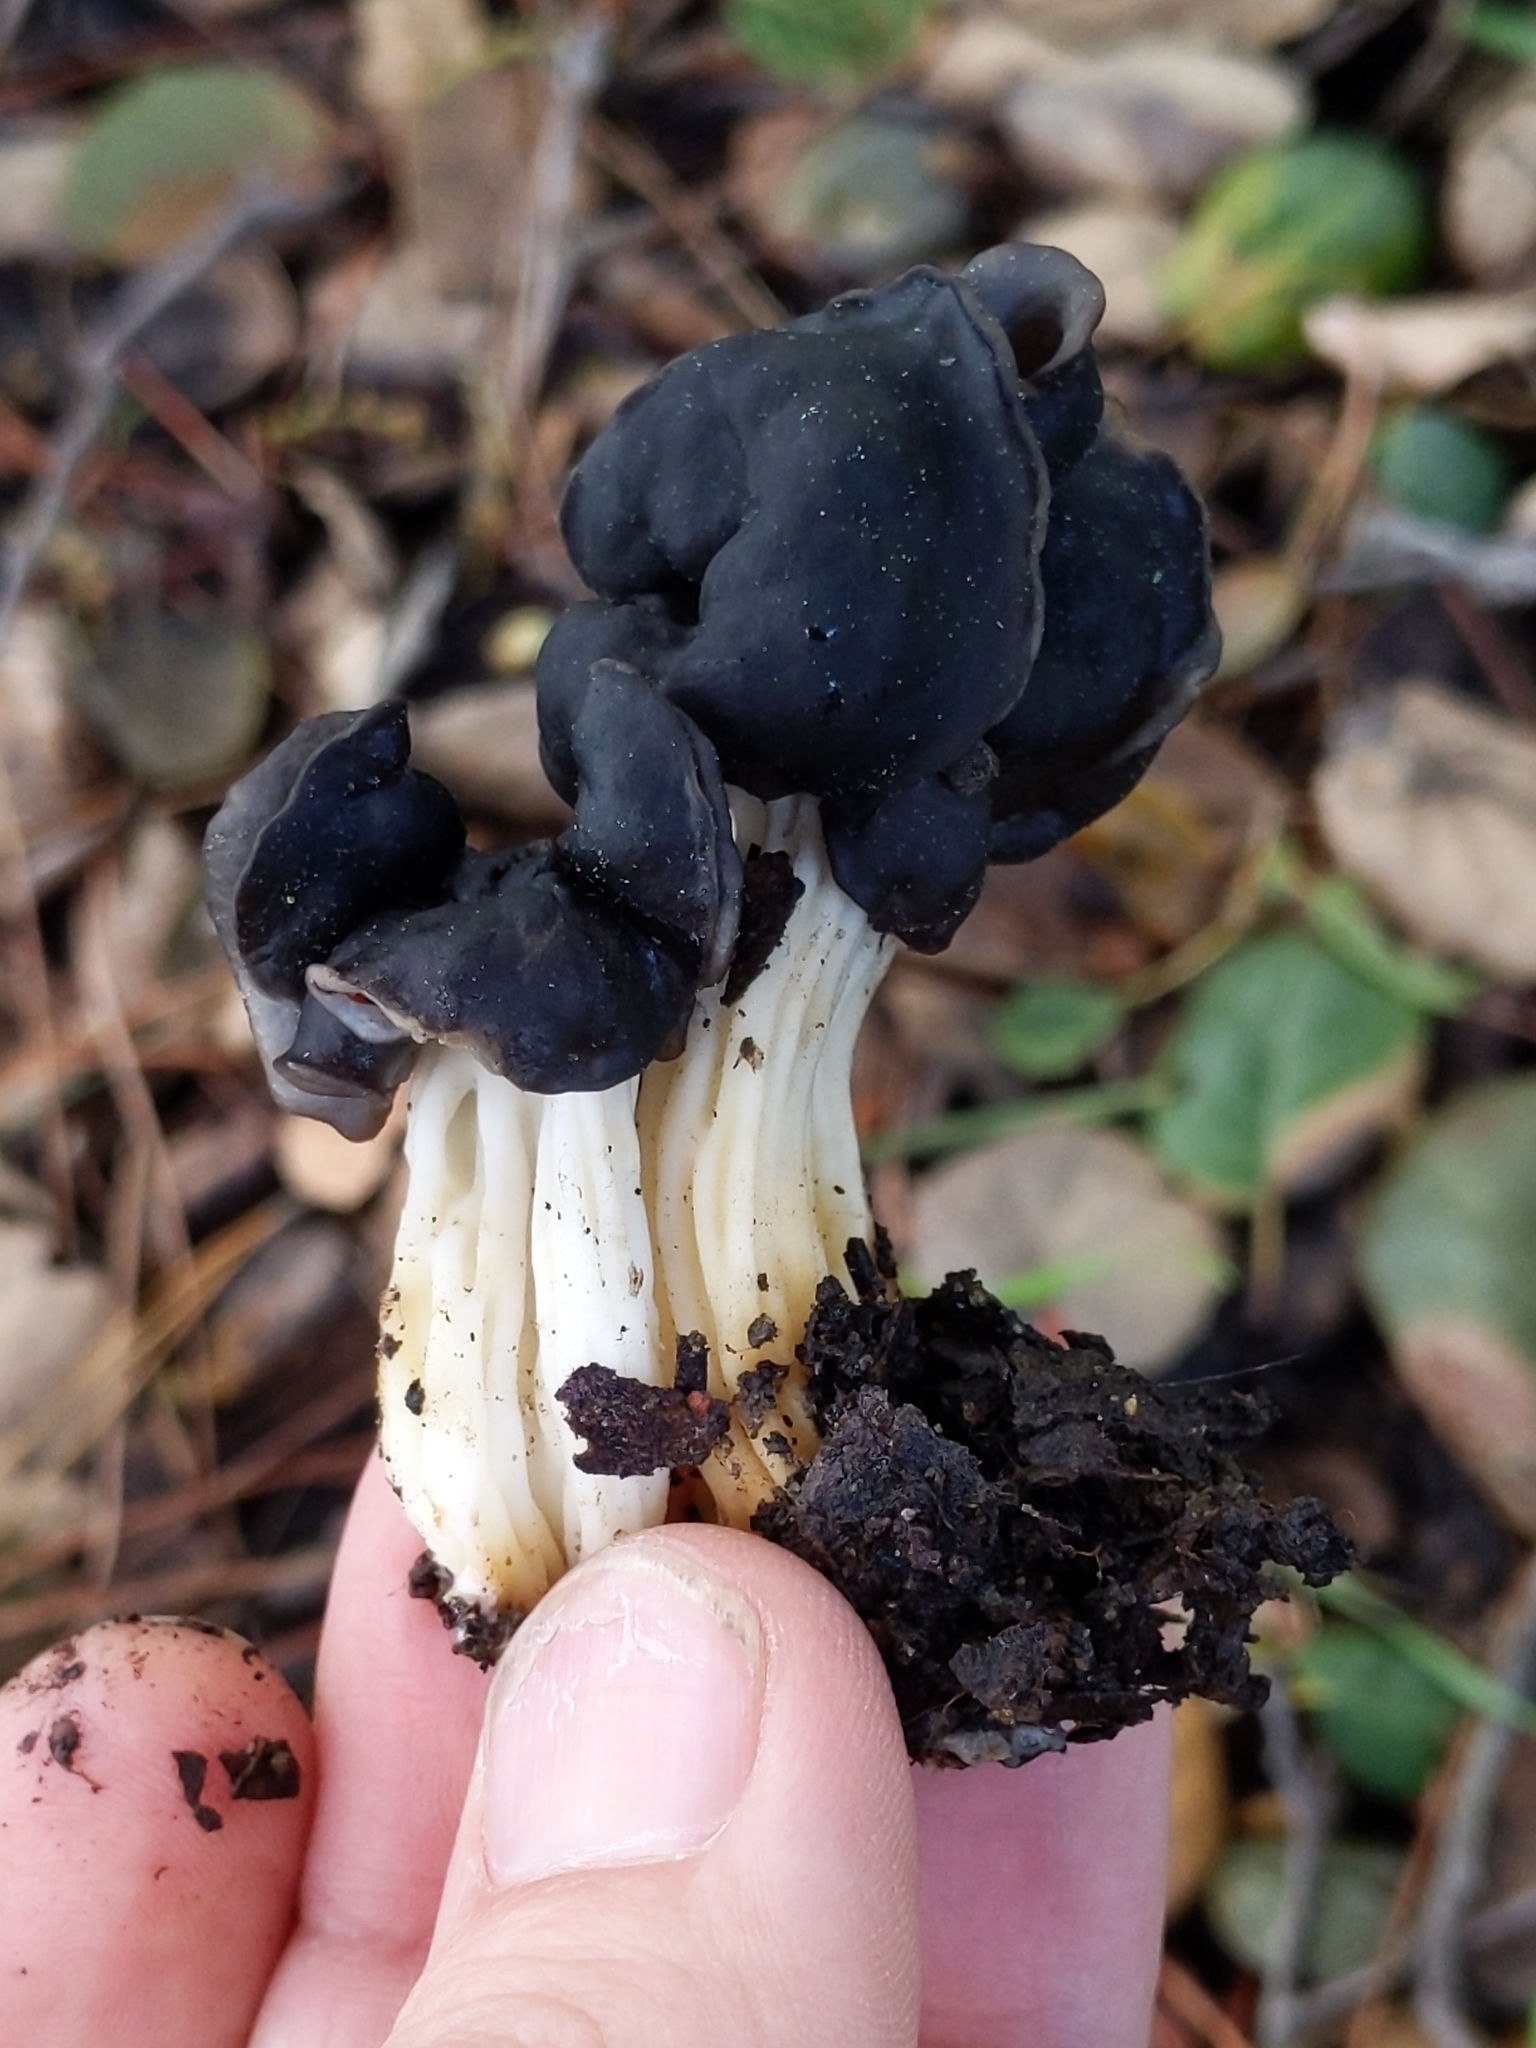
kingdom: Fungi
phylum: Ascomycota
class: Pezizomycetes
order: Pezizales
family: Helvellaceae
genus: Helvella
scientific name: Helvella dryophila
